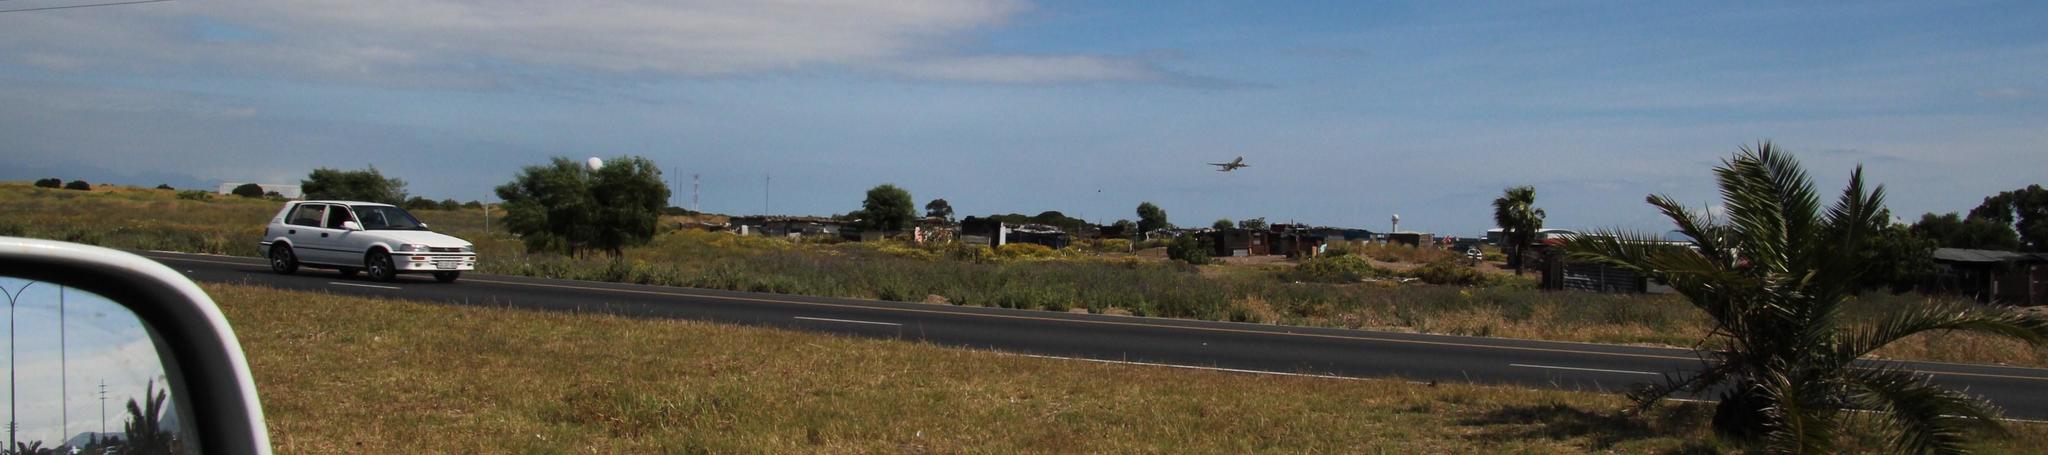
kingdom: Plantae
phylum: Tracheophyta
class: Magnoliopsida
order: Asterales
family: Asteraceae
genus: Glebionis
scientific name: Glebionis coronaria
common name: Crowndaisy
